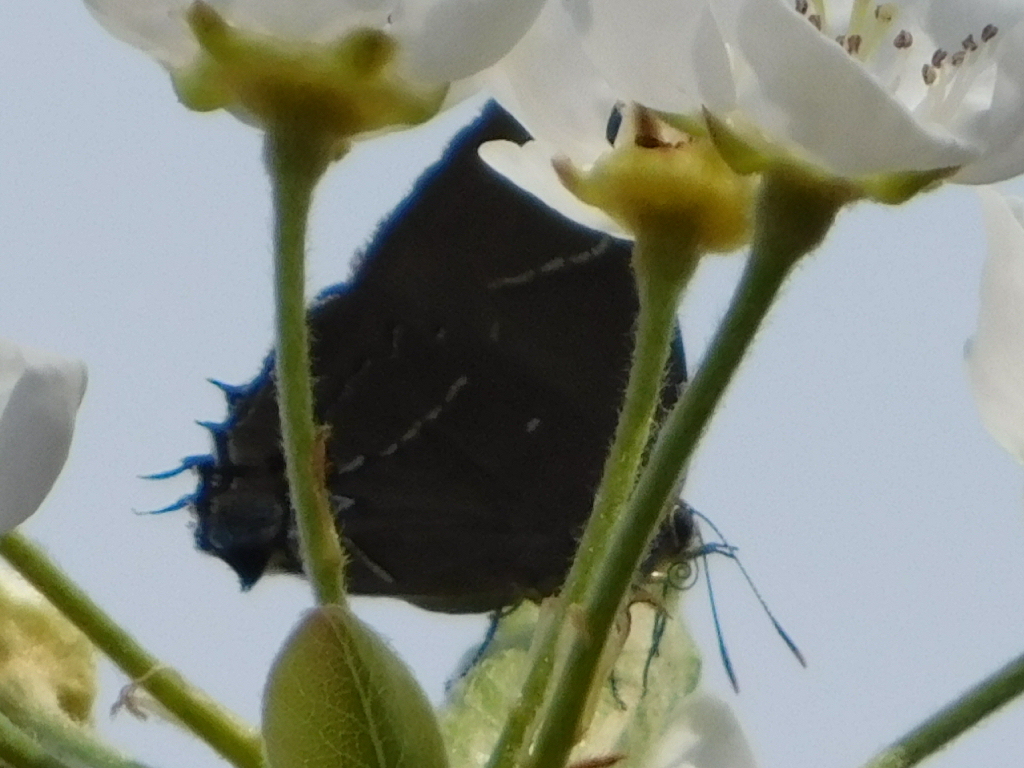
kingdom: Animalia
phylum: Arthropoda
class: Insecta
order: Lepidoptera
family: Lycaenidae
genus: Parrhasius
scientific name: Parrhasius m-album
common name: White m hairstreak
